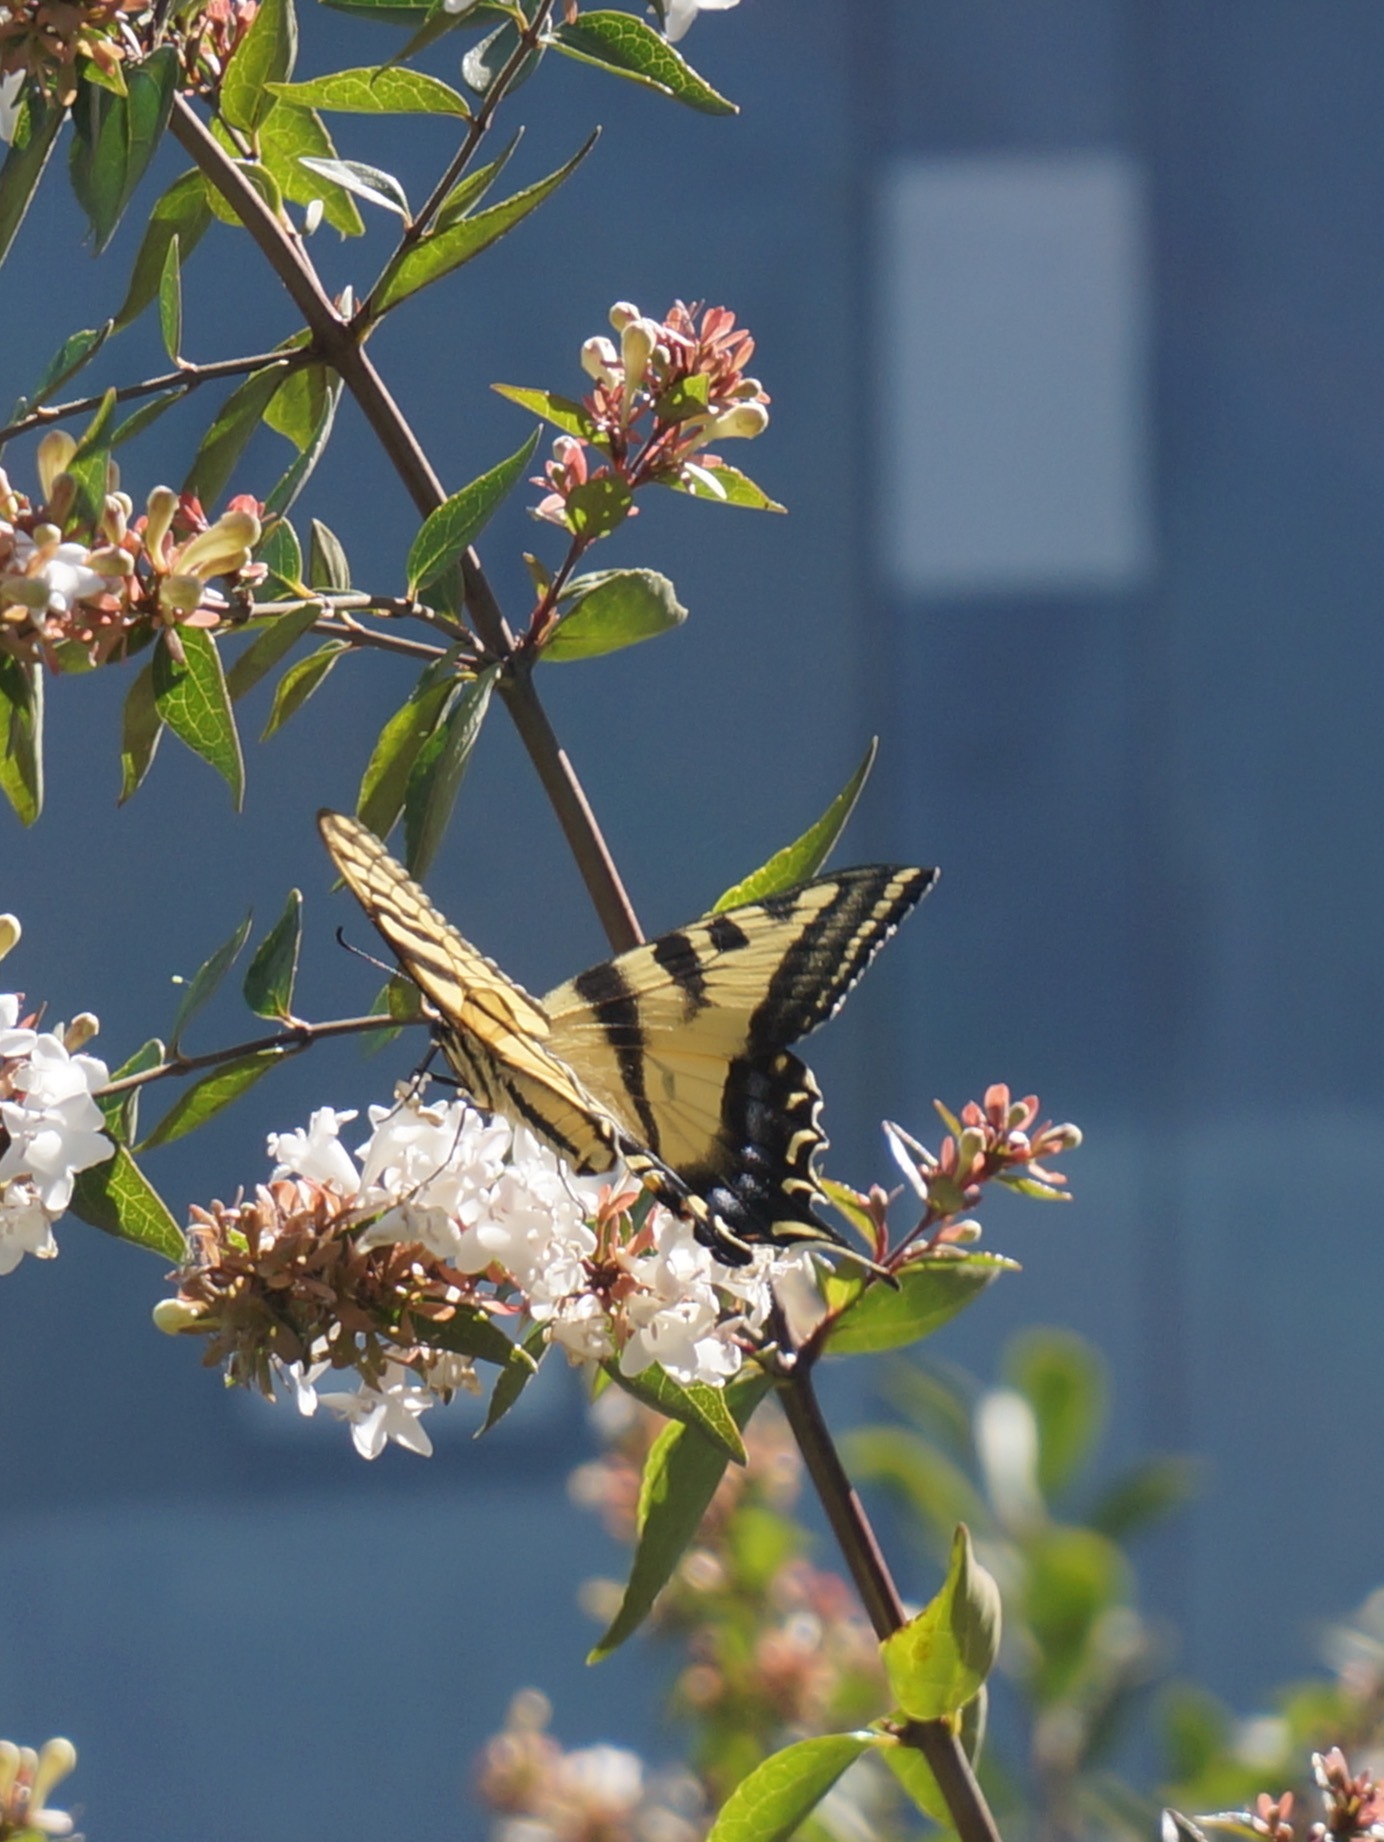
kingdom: Animalia
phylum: Arthropoda
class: Insecta
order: Lepidoptera
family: Papilionidae
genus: Papilio
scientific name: Papilio rutulus
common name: Western tiger swallowtail
